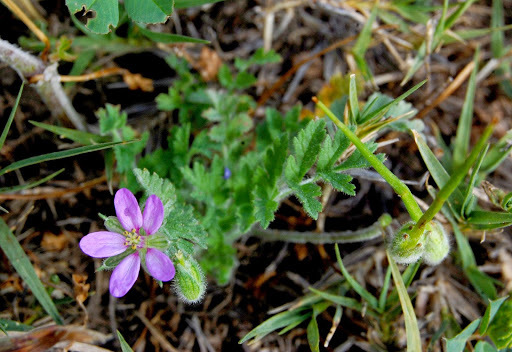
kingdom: Plantae
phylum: Tracheophyta
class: Magnoliopsida
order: Geraniales
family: Geraniaceae
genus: Erodium
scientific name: Erodium cicutarium
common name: Common stork's-bill
